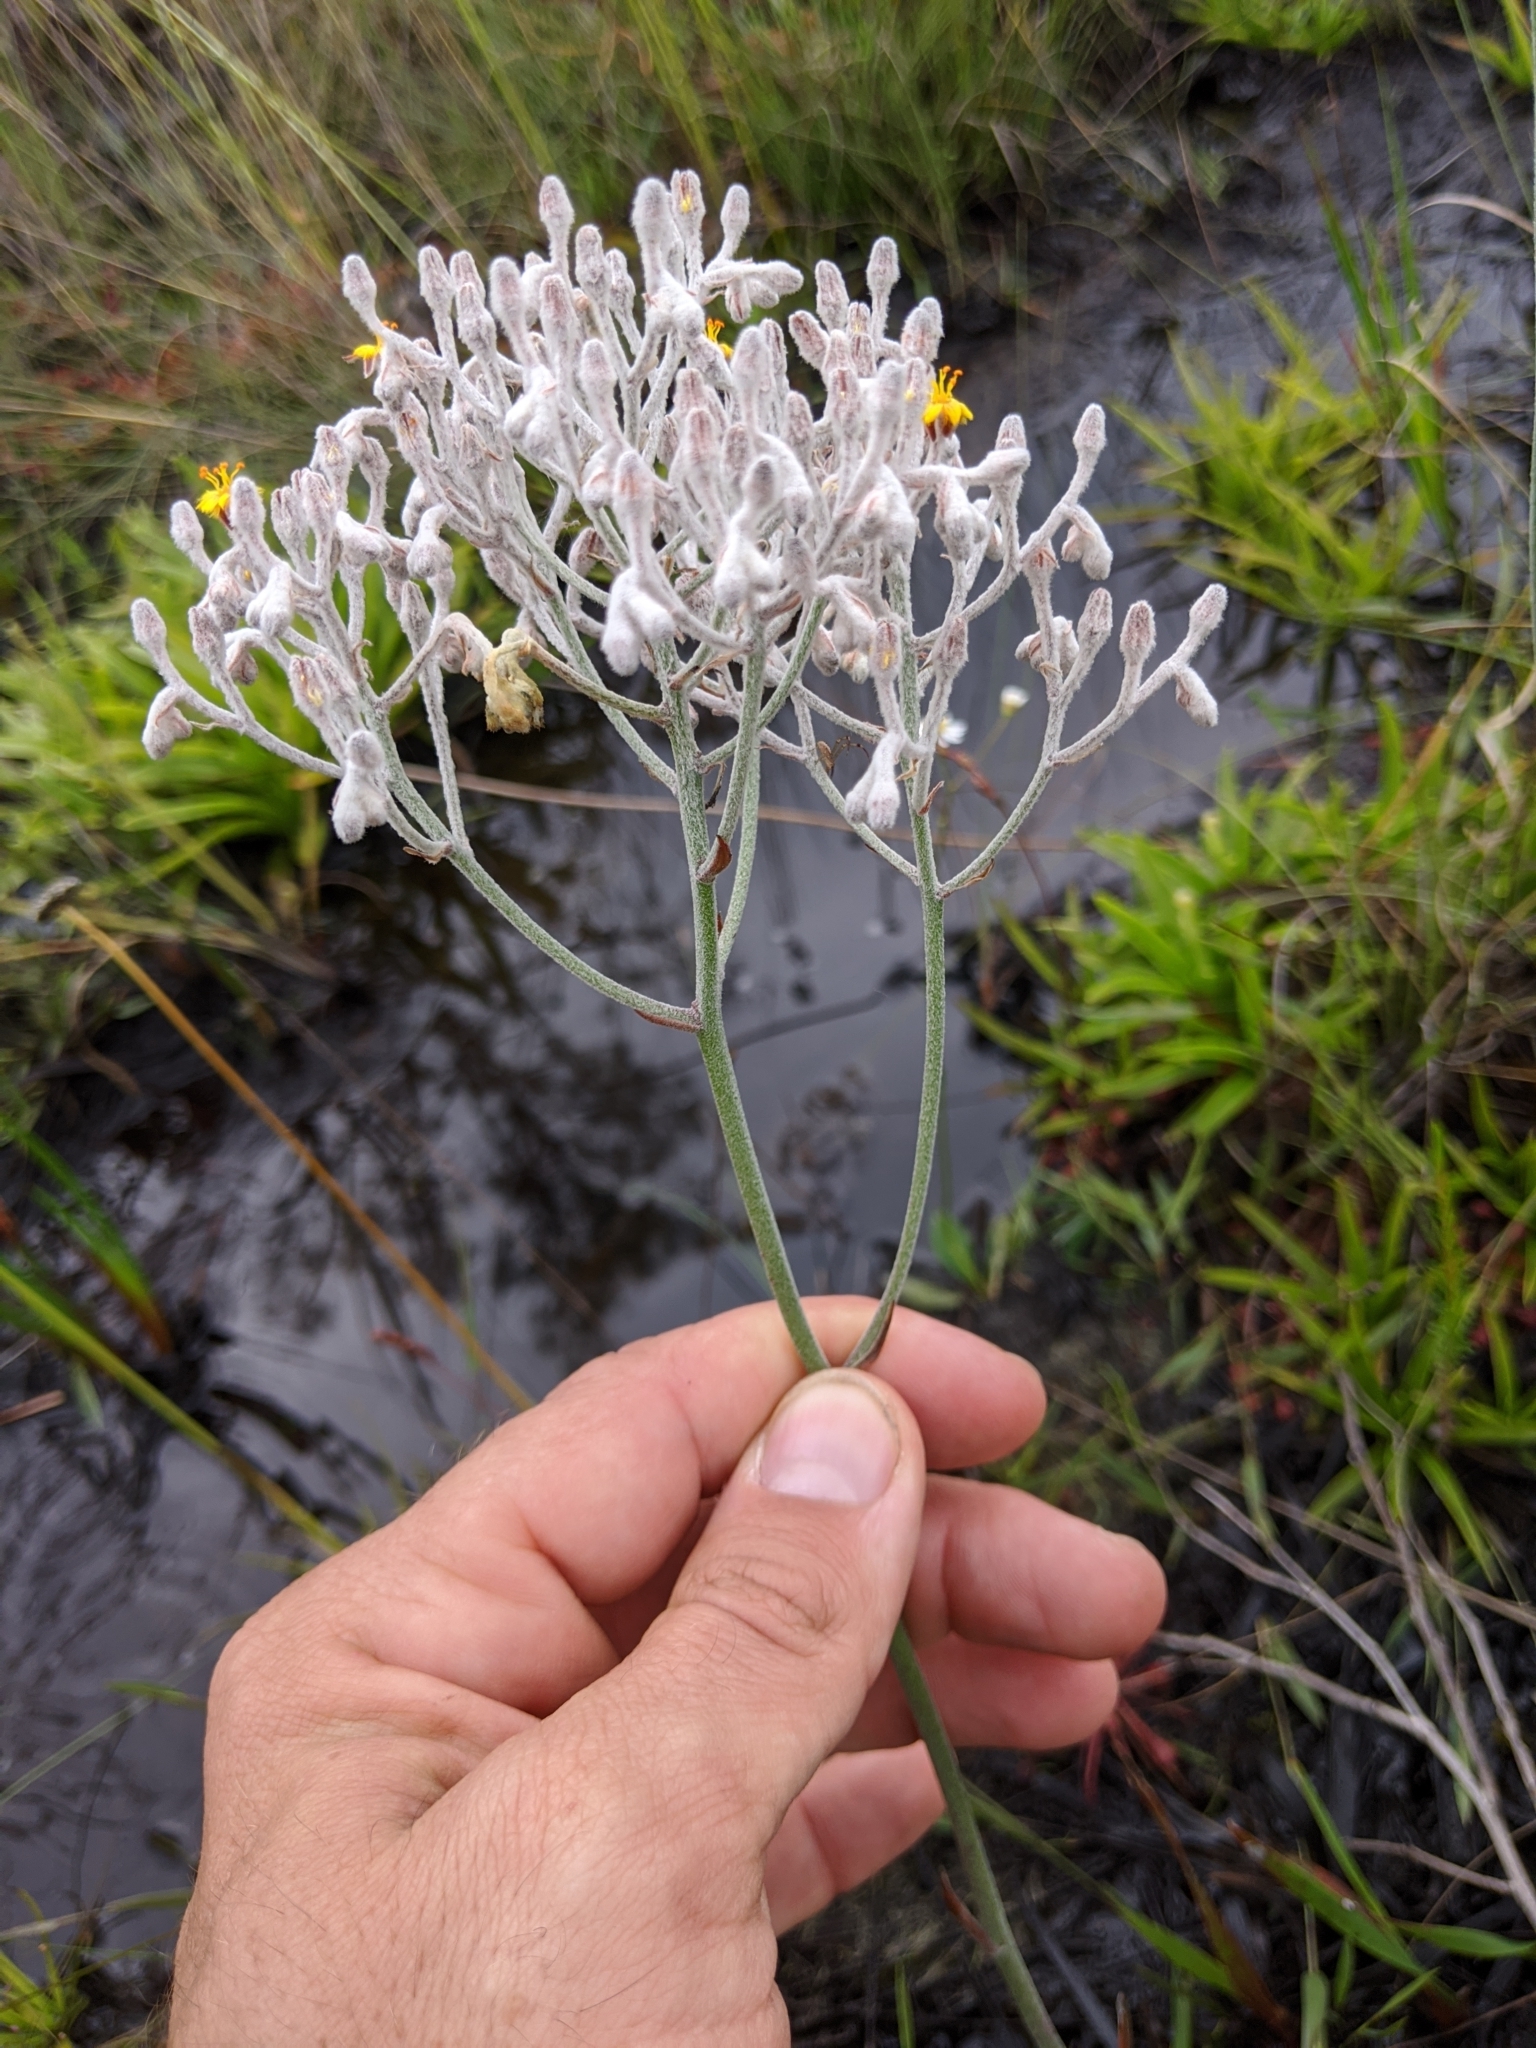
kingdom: Plantae
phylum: Tracheophyta
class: Liliopsida
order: Dioscoreales
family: Nartheciaceae
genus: Lophiola
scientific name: Lophiola aurea
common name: Golden-crest
